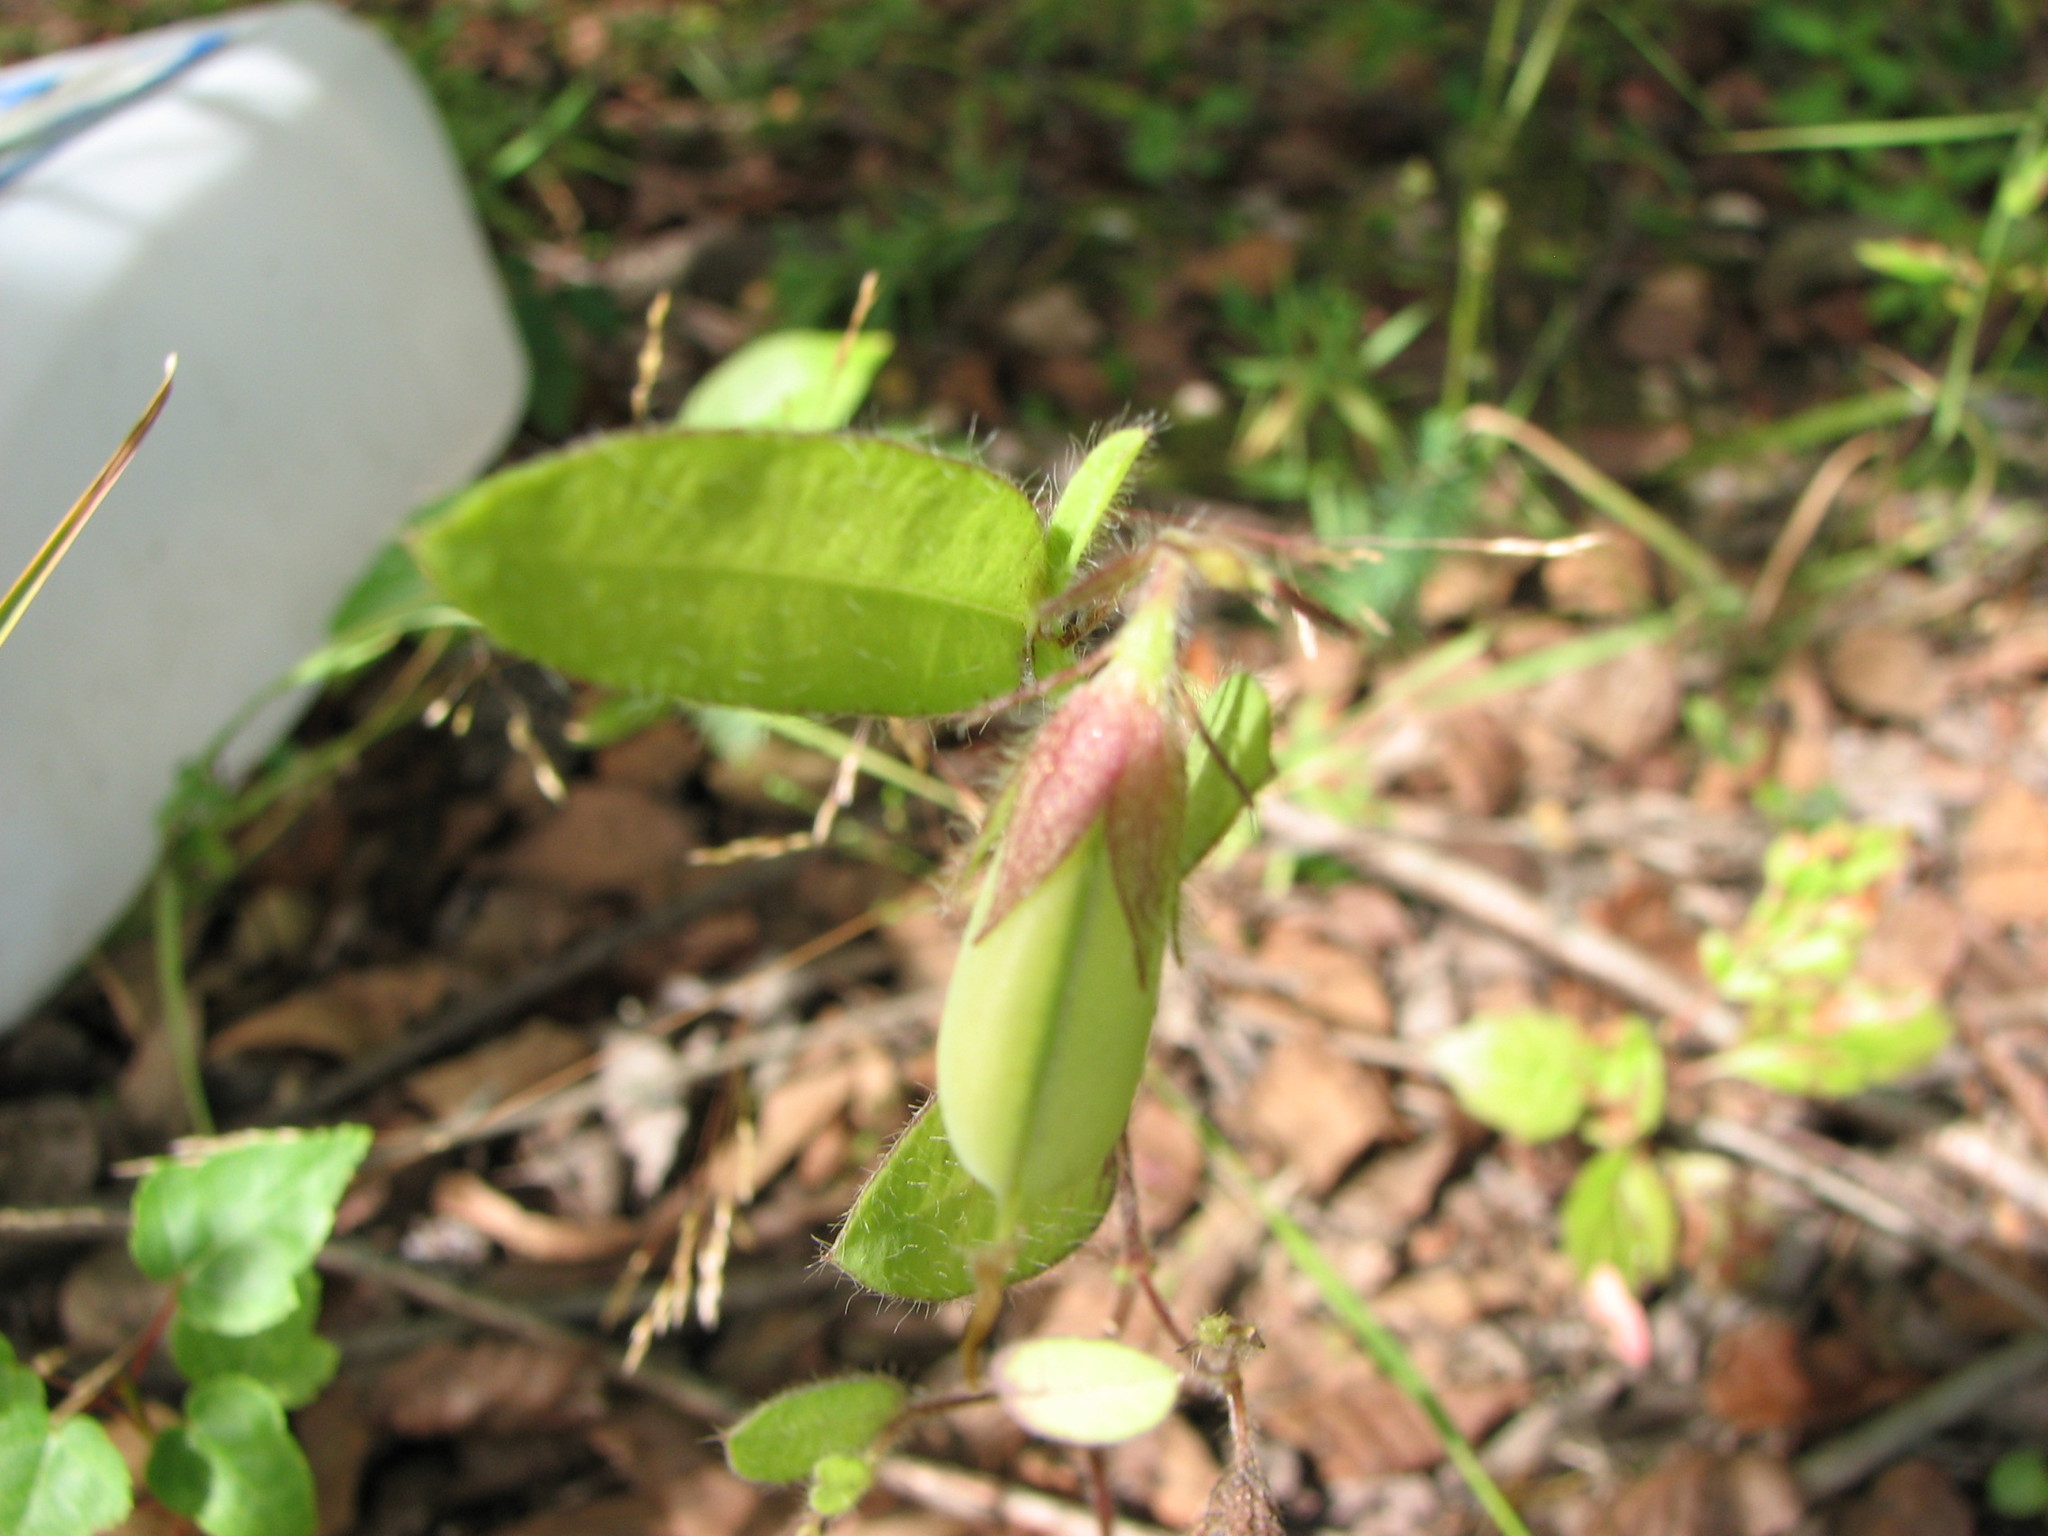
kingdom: Plantae
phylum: Tracheophyta
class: Magnoliopsida
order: Fabales
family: Fabaceae
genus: Crotalaria
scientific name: Crotalaria sagittalis
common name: Arrowhead rattlebox
